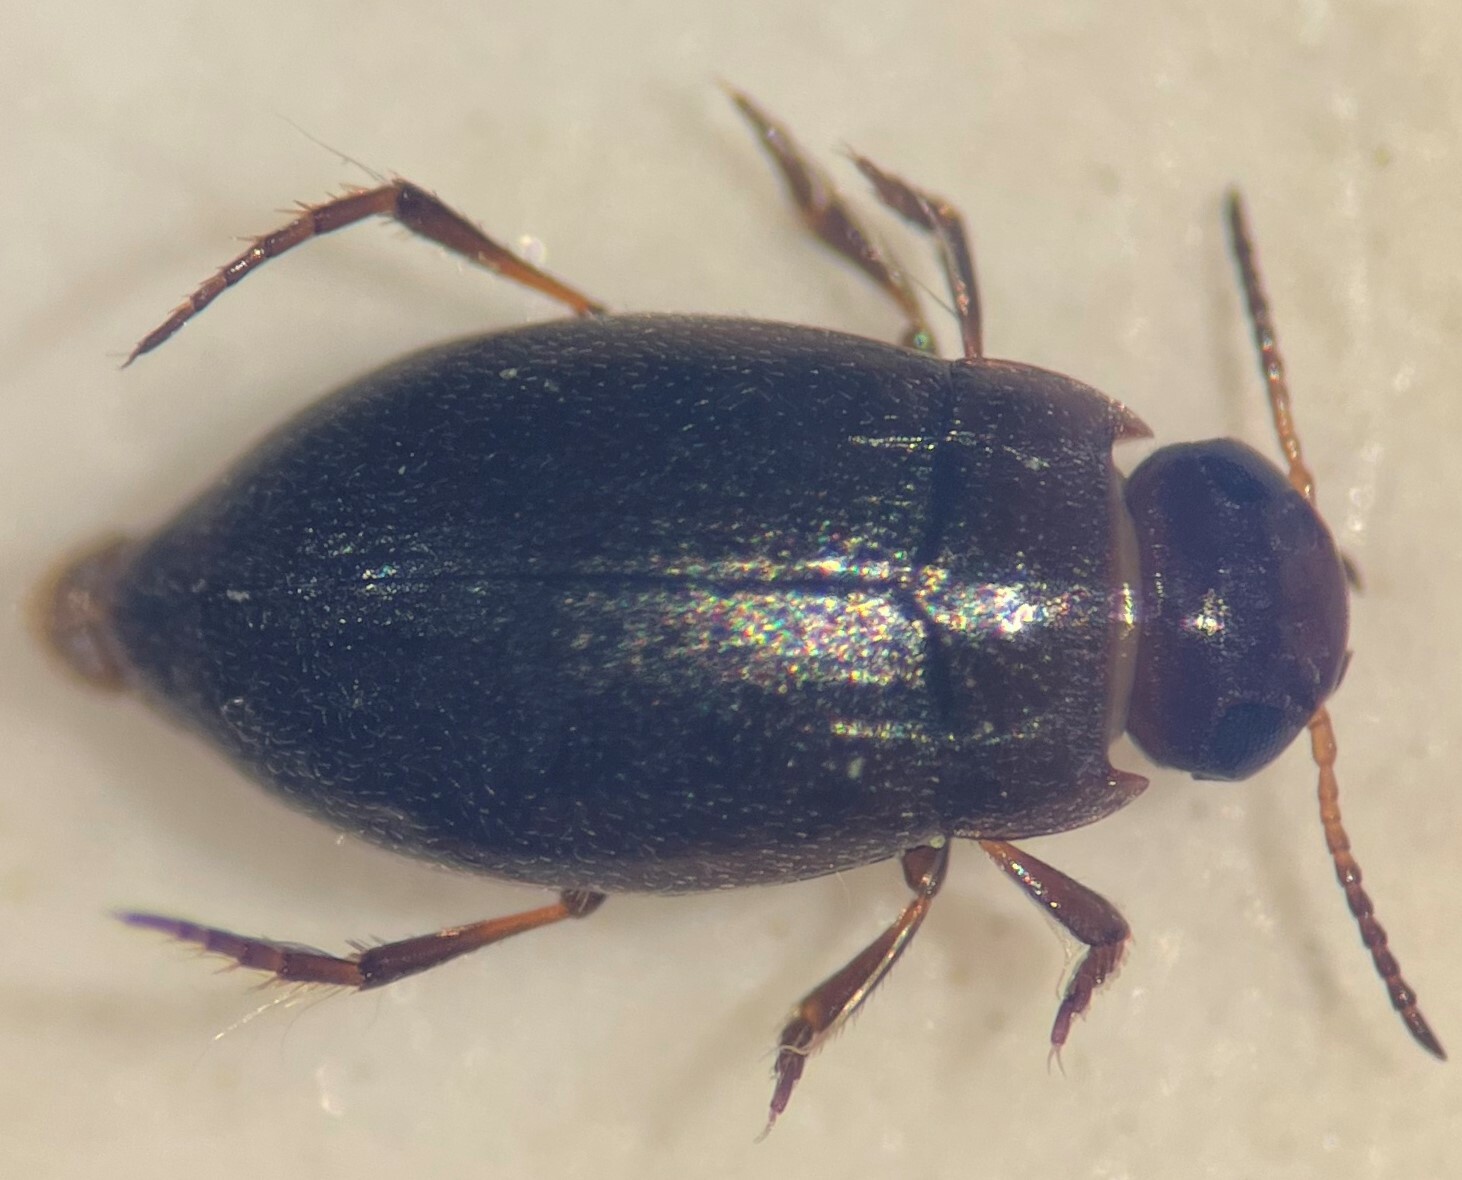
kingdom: Animalia
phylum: Arthropoda
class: Insecta
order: Coleoptera
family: Dytiscidae
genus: Liodessus
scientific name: Liodessus abjectus
